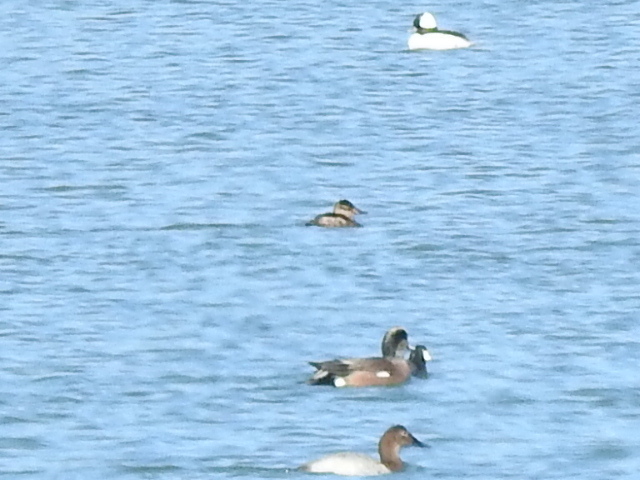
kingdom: Animalia
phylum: Chordata
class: Aves
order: Anseriformes
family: Anatidae
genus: Oxyura
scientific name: Oxyura jamaicensis
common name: Ruddy duck
